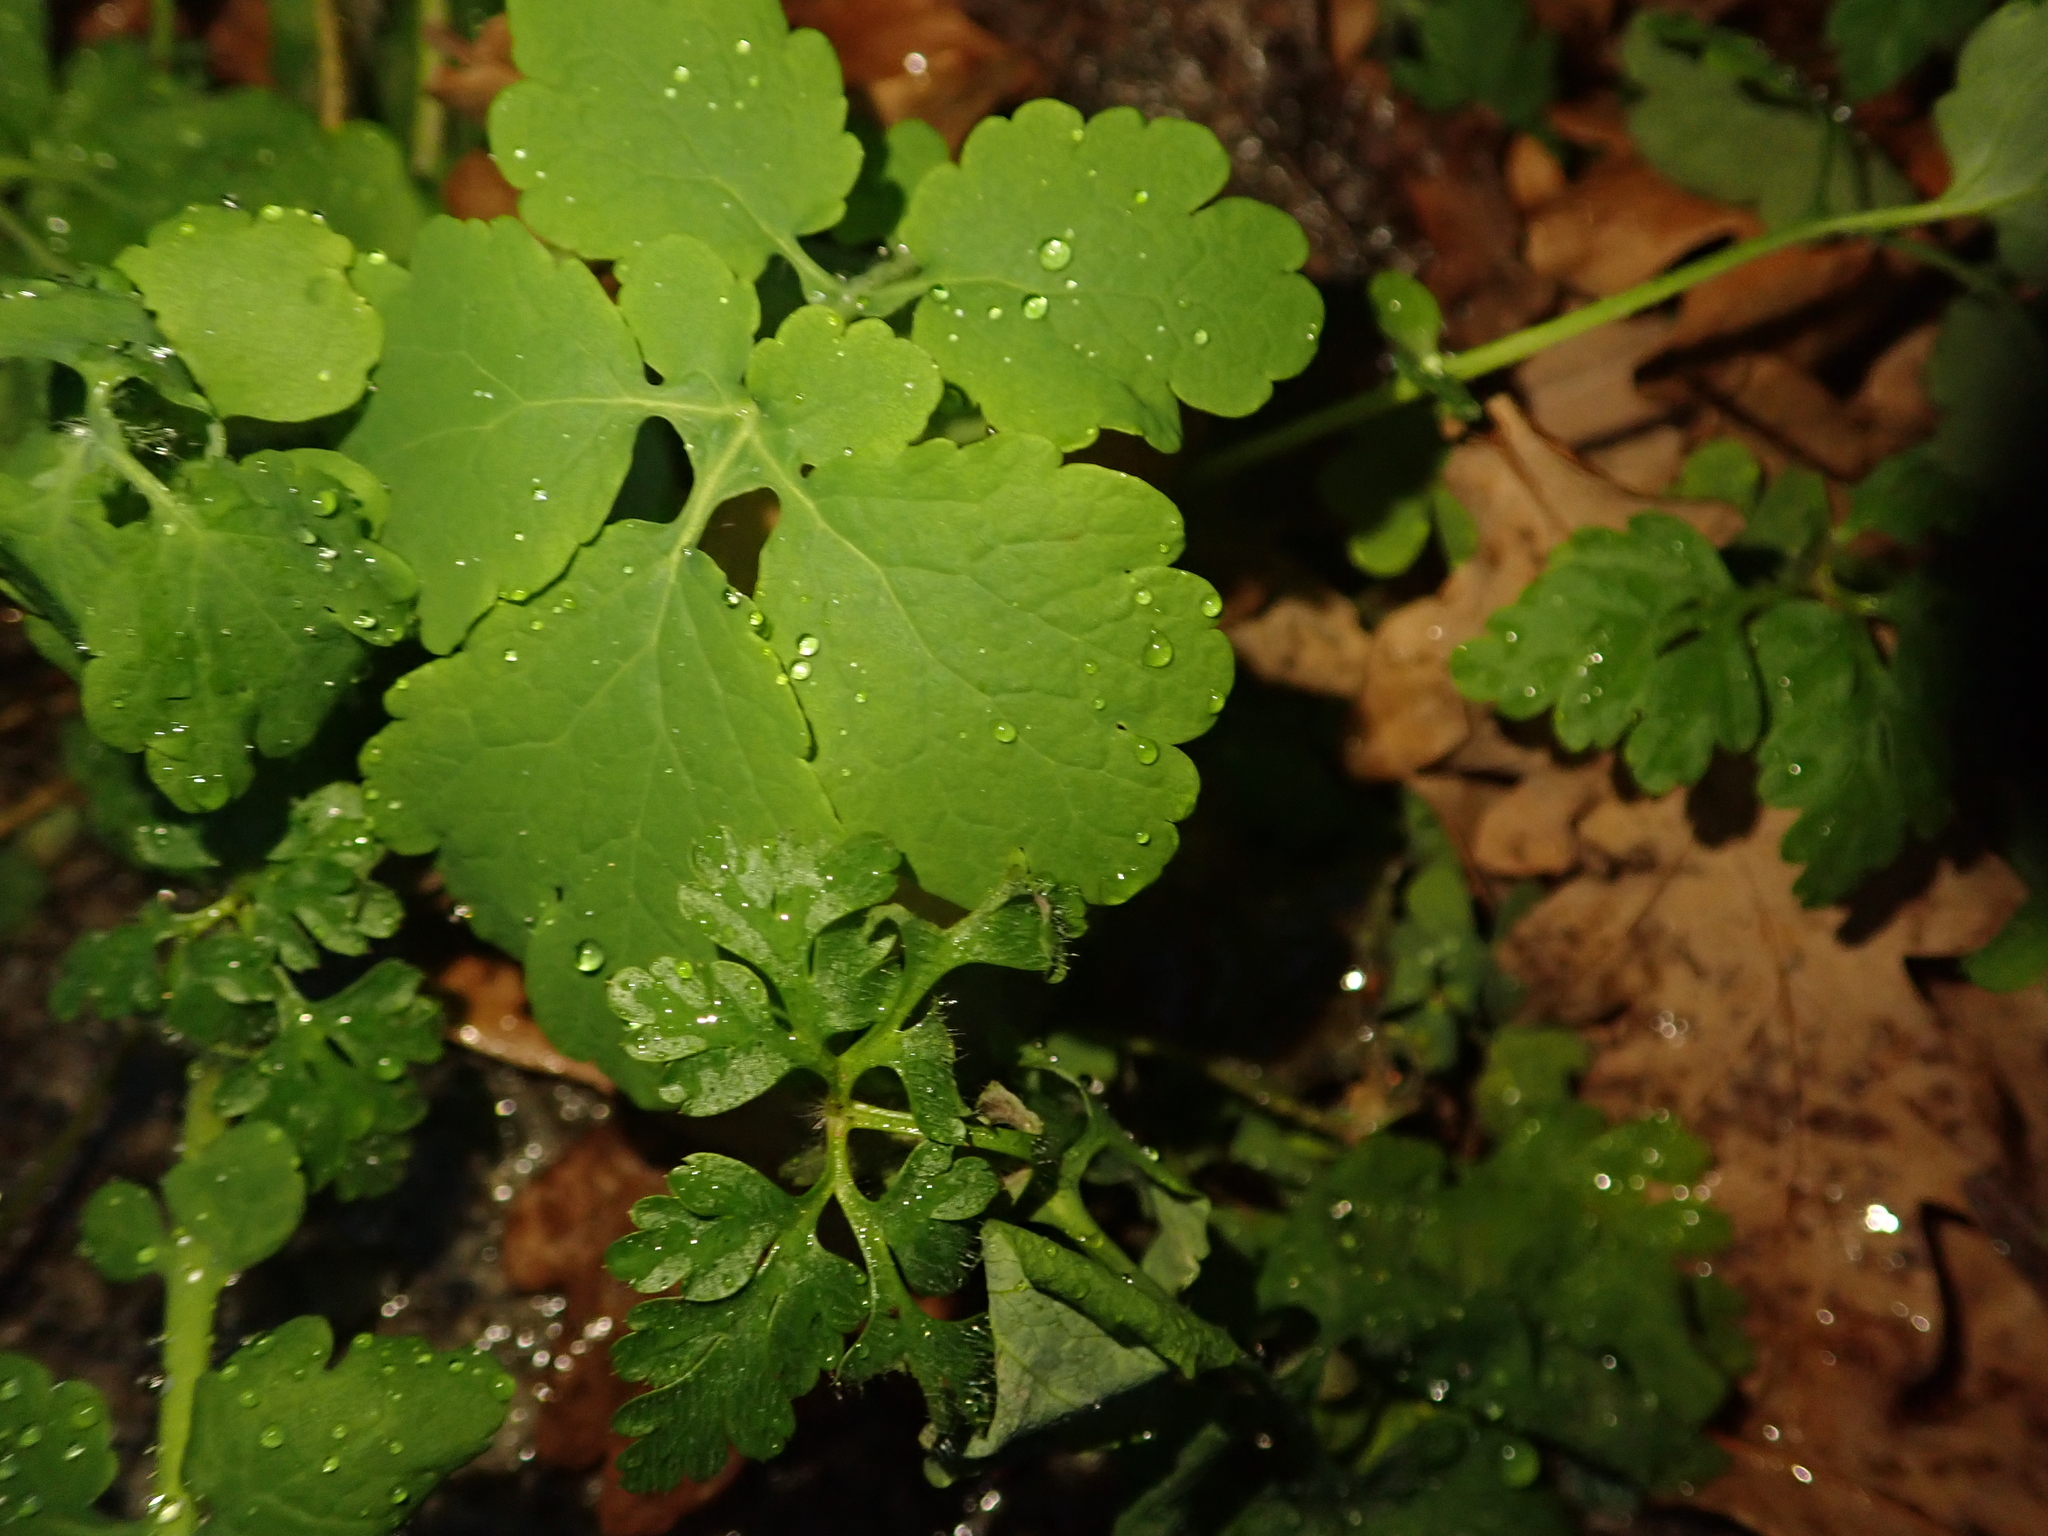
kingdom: Plantae
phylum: Tracheophyta
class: Magnoliopsida
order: Ranunculales
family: Papaveraceae
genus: Chelidonium
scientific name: Chelidonium majus
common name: Greater celandine
